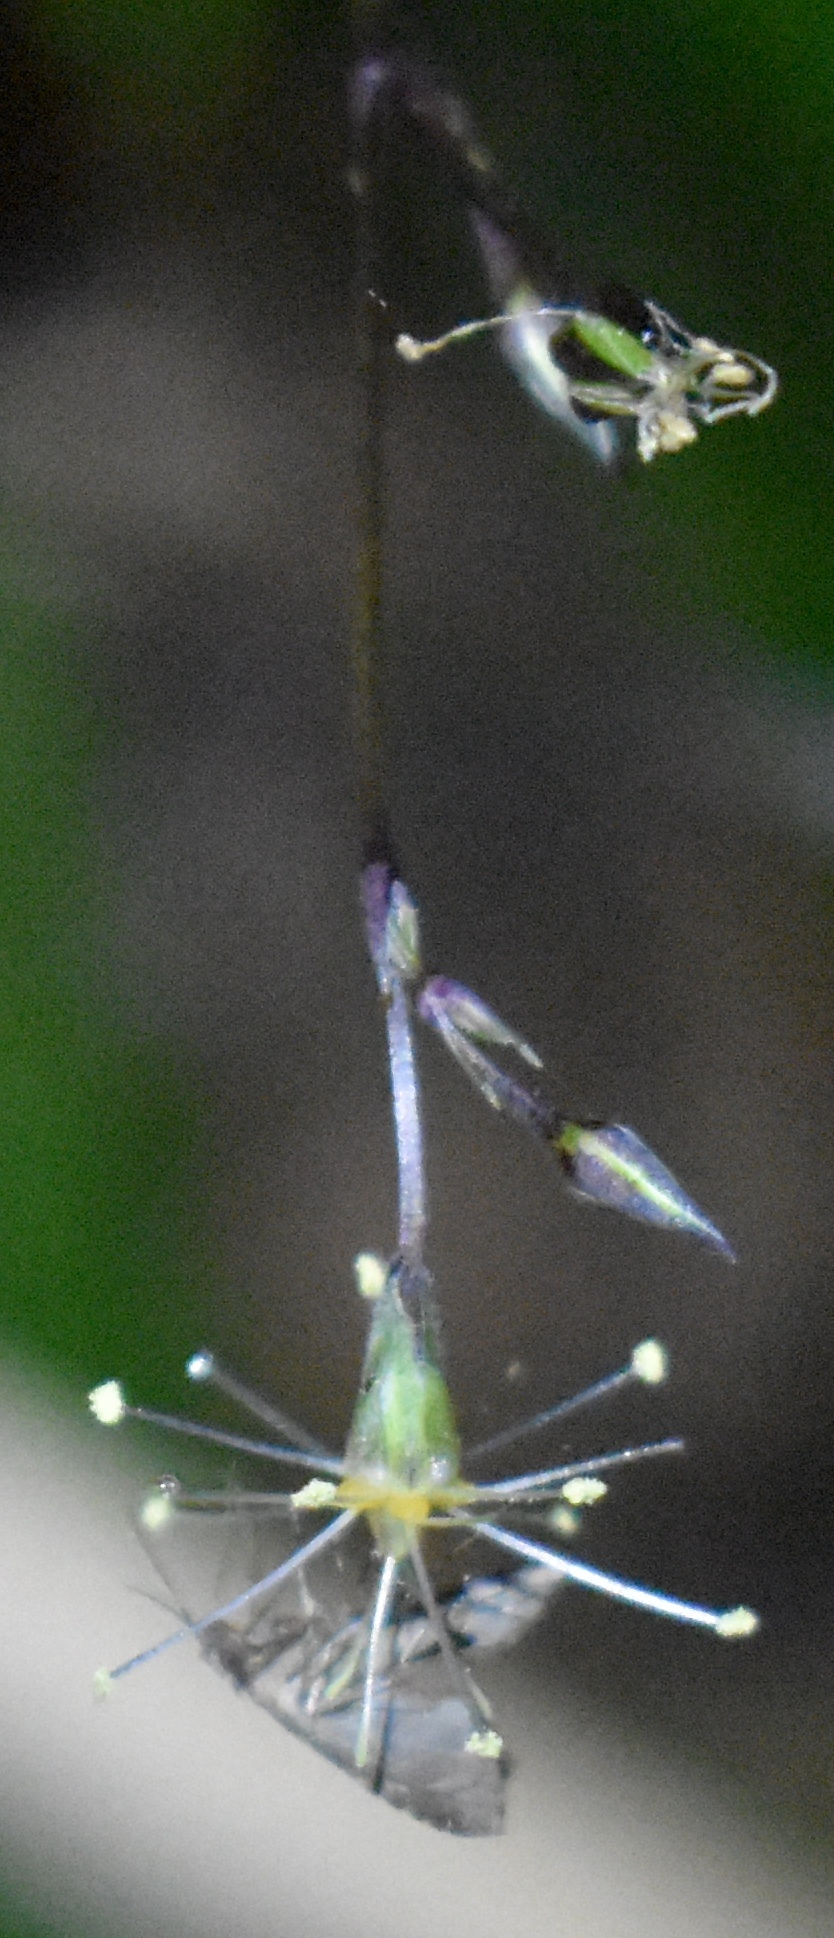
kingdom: Animalia
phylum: Arthropoda
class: Insecta
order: Lepidoptera
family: Erebidae
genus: Pseudoschrankia
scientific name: Pseudoschrankia brevipalpis
